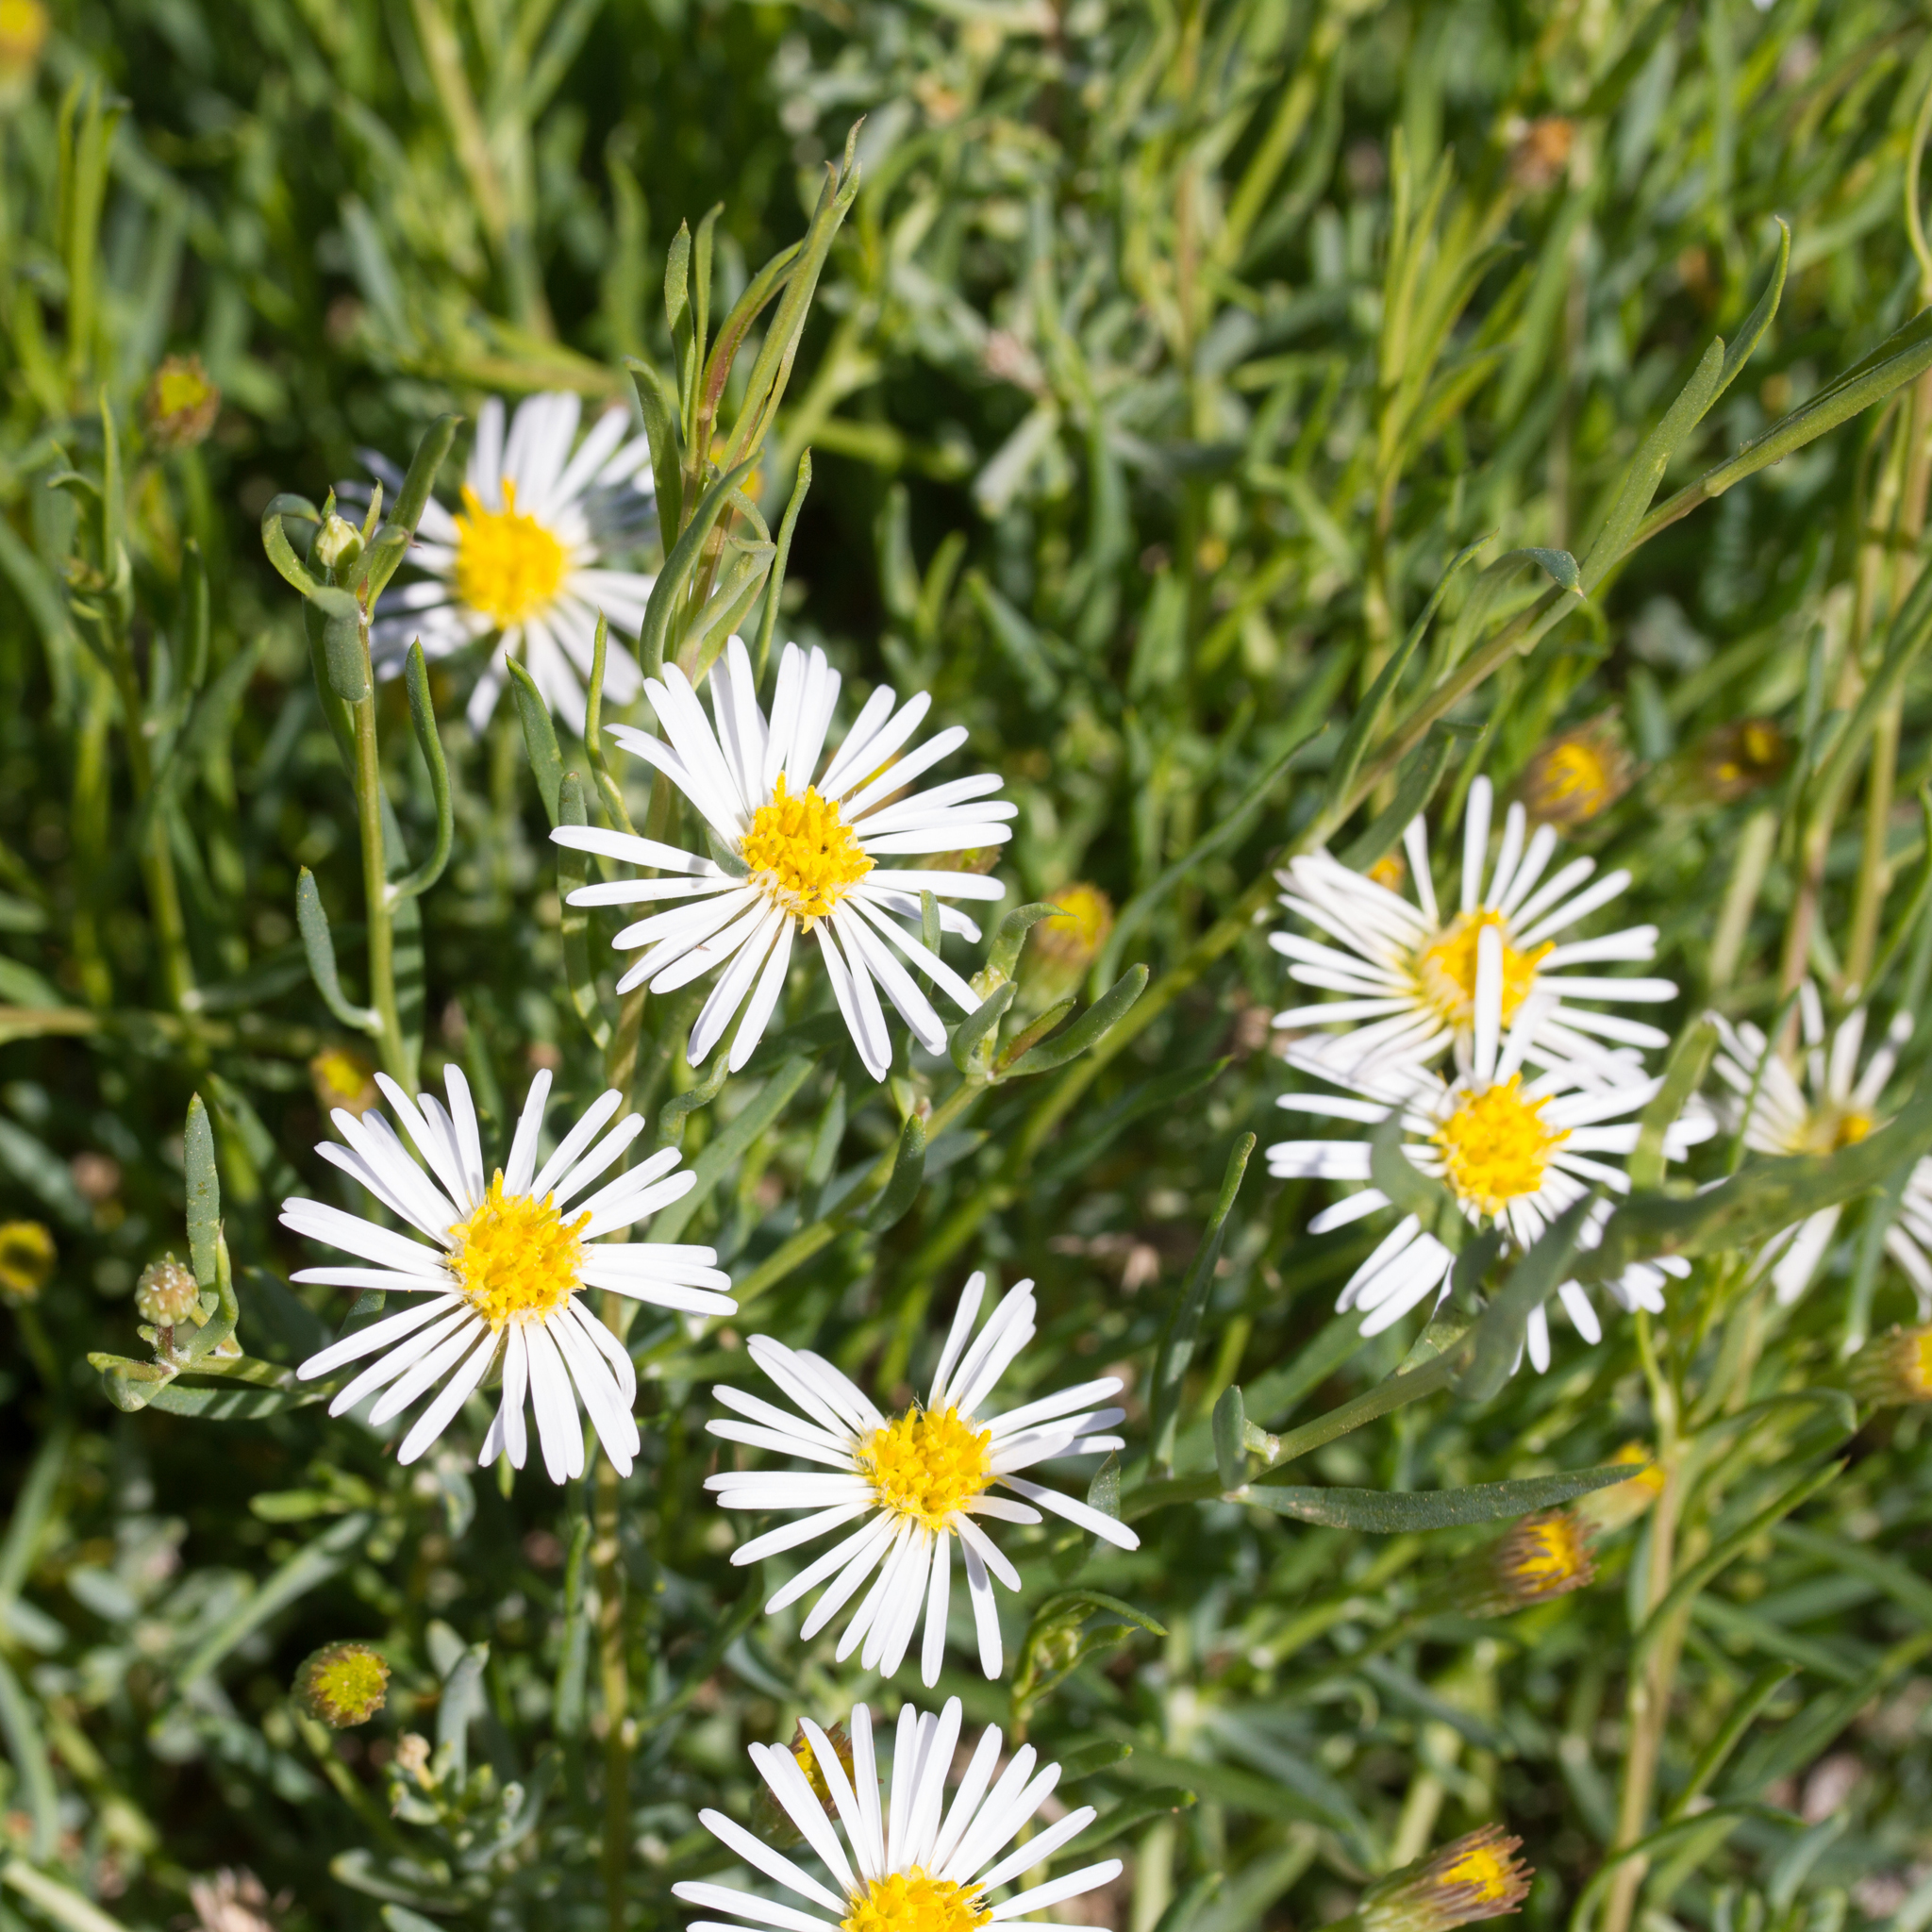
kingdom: Plantae
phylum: Tracheophyta
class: Magnoliopsida
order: Asterales
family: Asteraceae
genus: Minuria
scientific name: Minuria leptophylla
